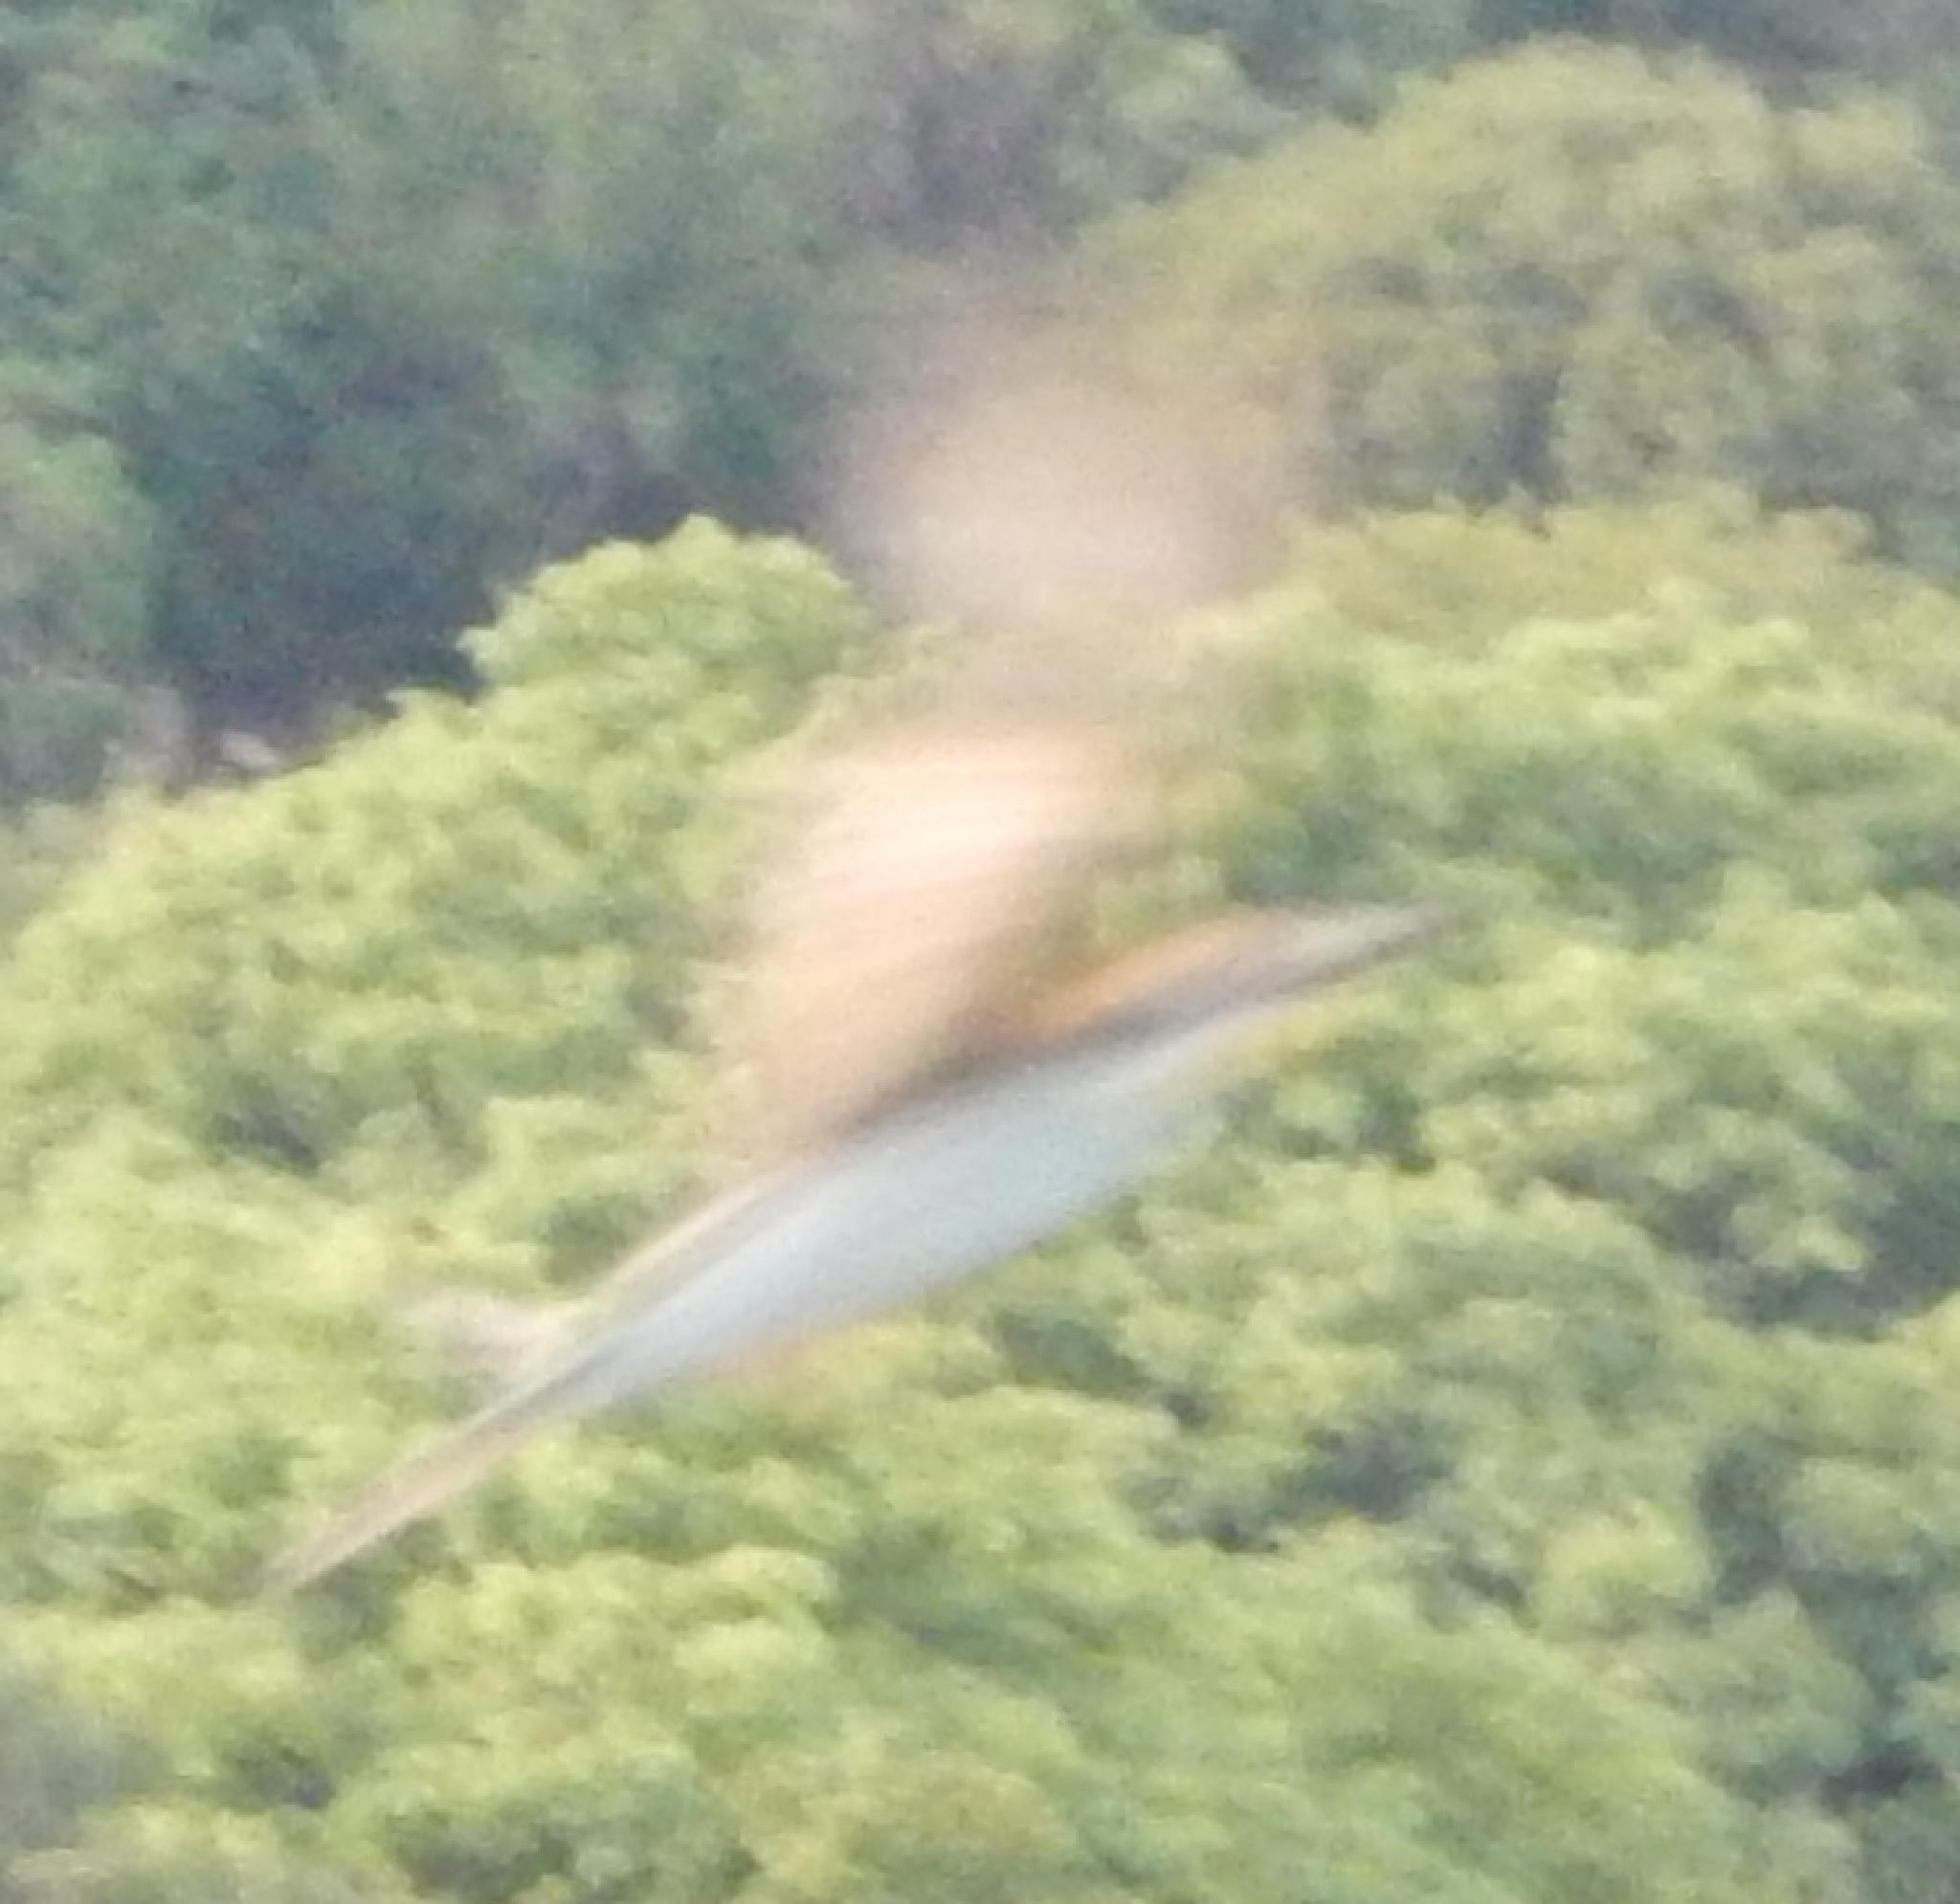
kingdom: Animalia
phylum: Chordata
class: Aves
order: Coraciiformes
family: Meropidae
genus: Merops
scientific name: Merops apiaster
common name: European bee-eater
